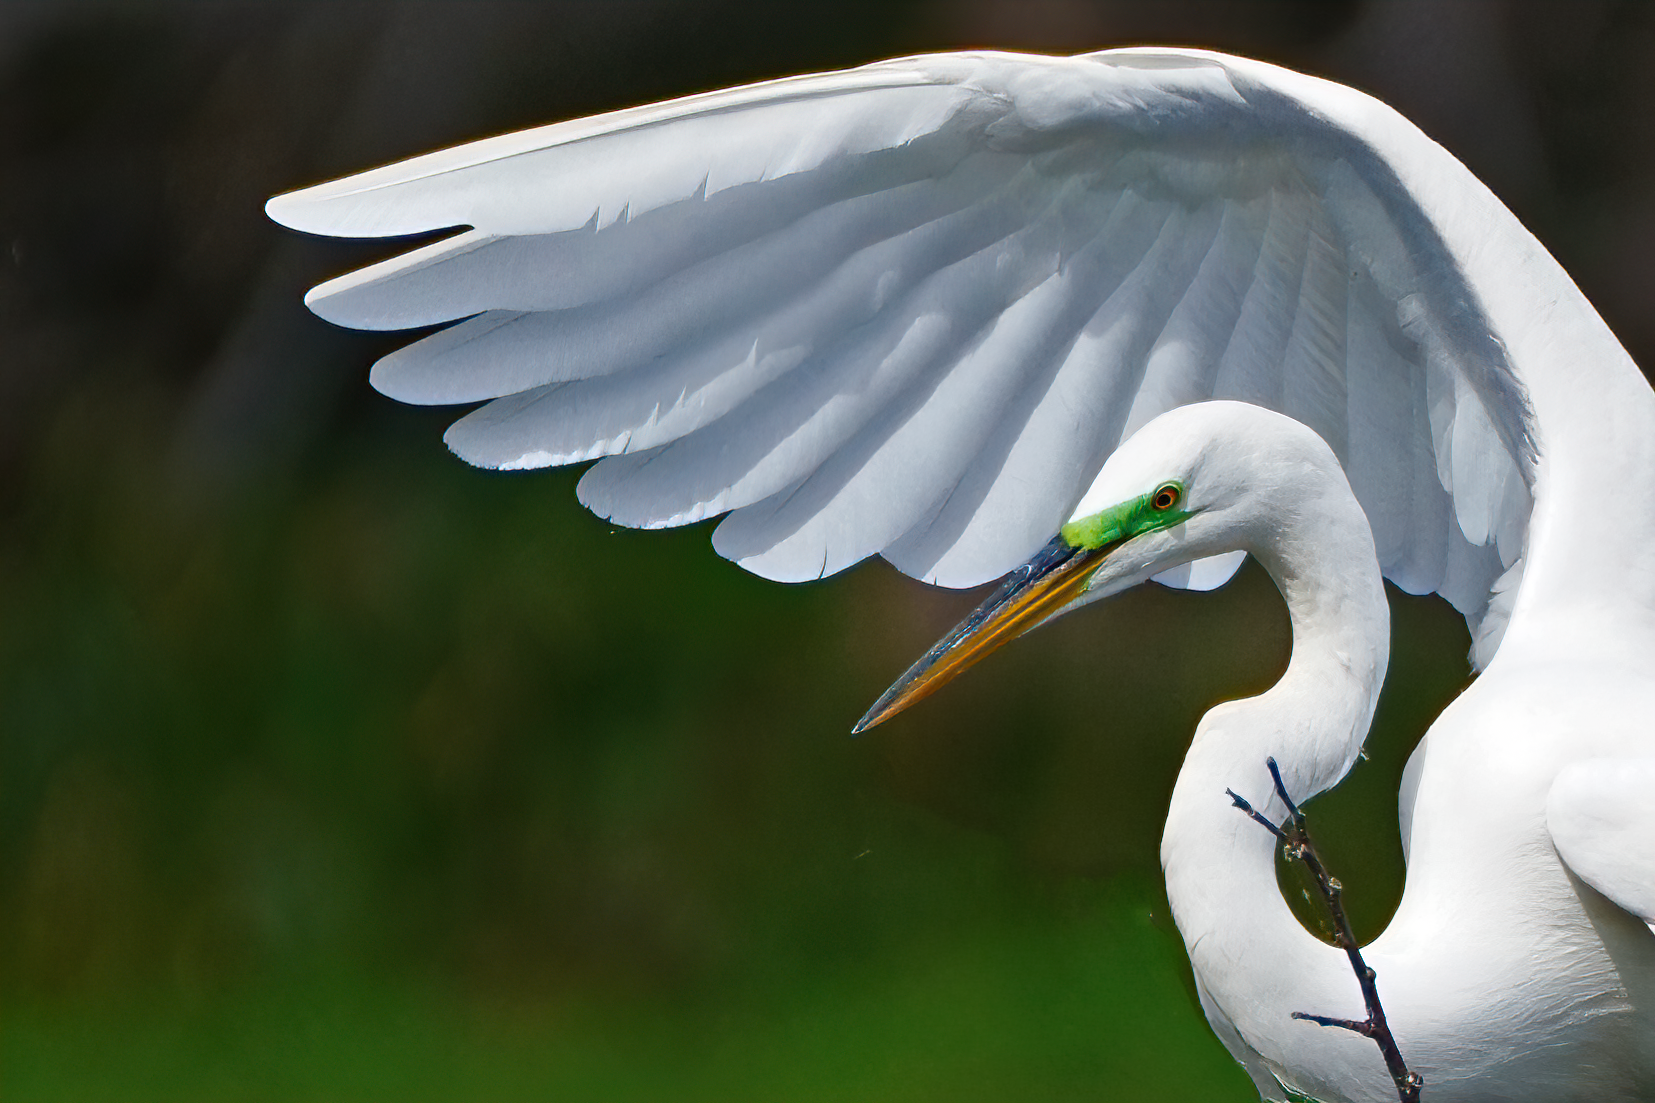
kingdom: Animalia
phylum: Chordata
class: Aves
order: Pelecaniformes
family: Ardeidae
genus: Ardea
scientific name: Ardea alba
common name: Great egret
